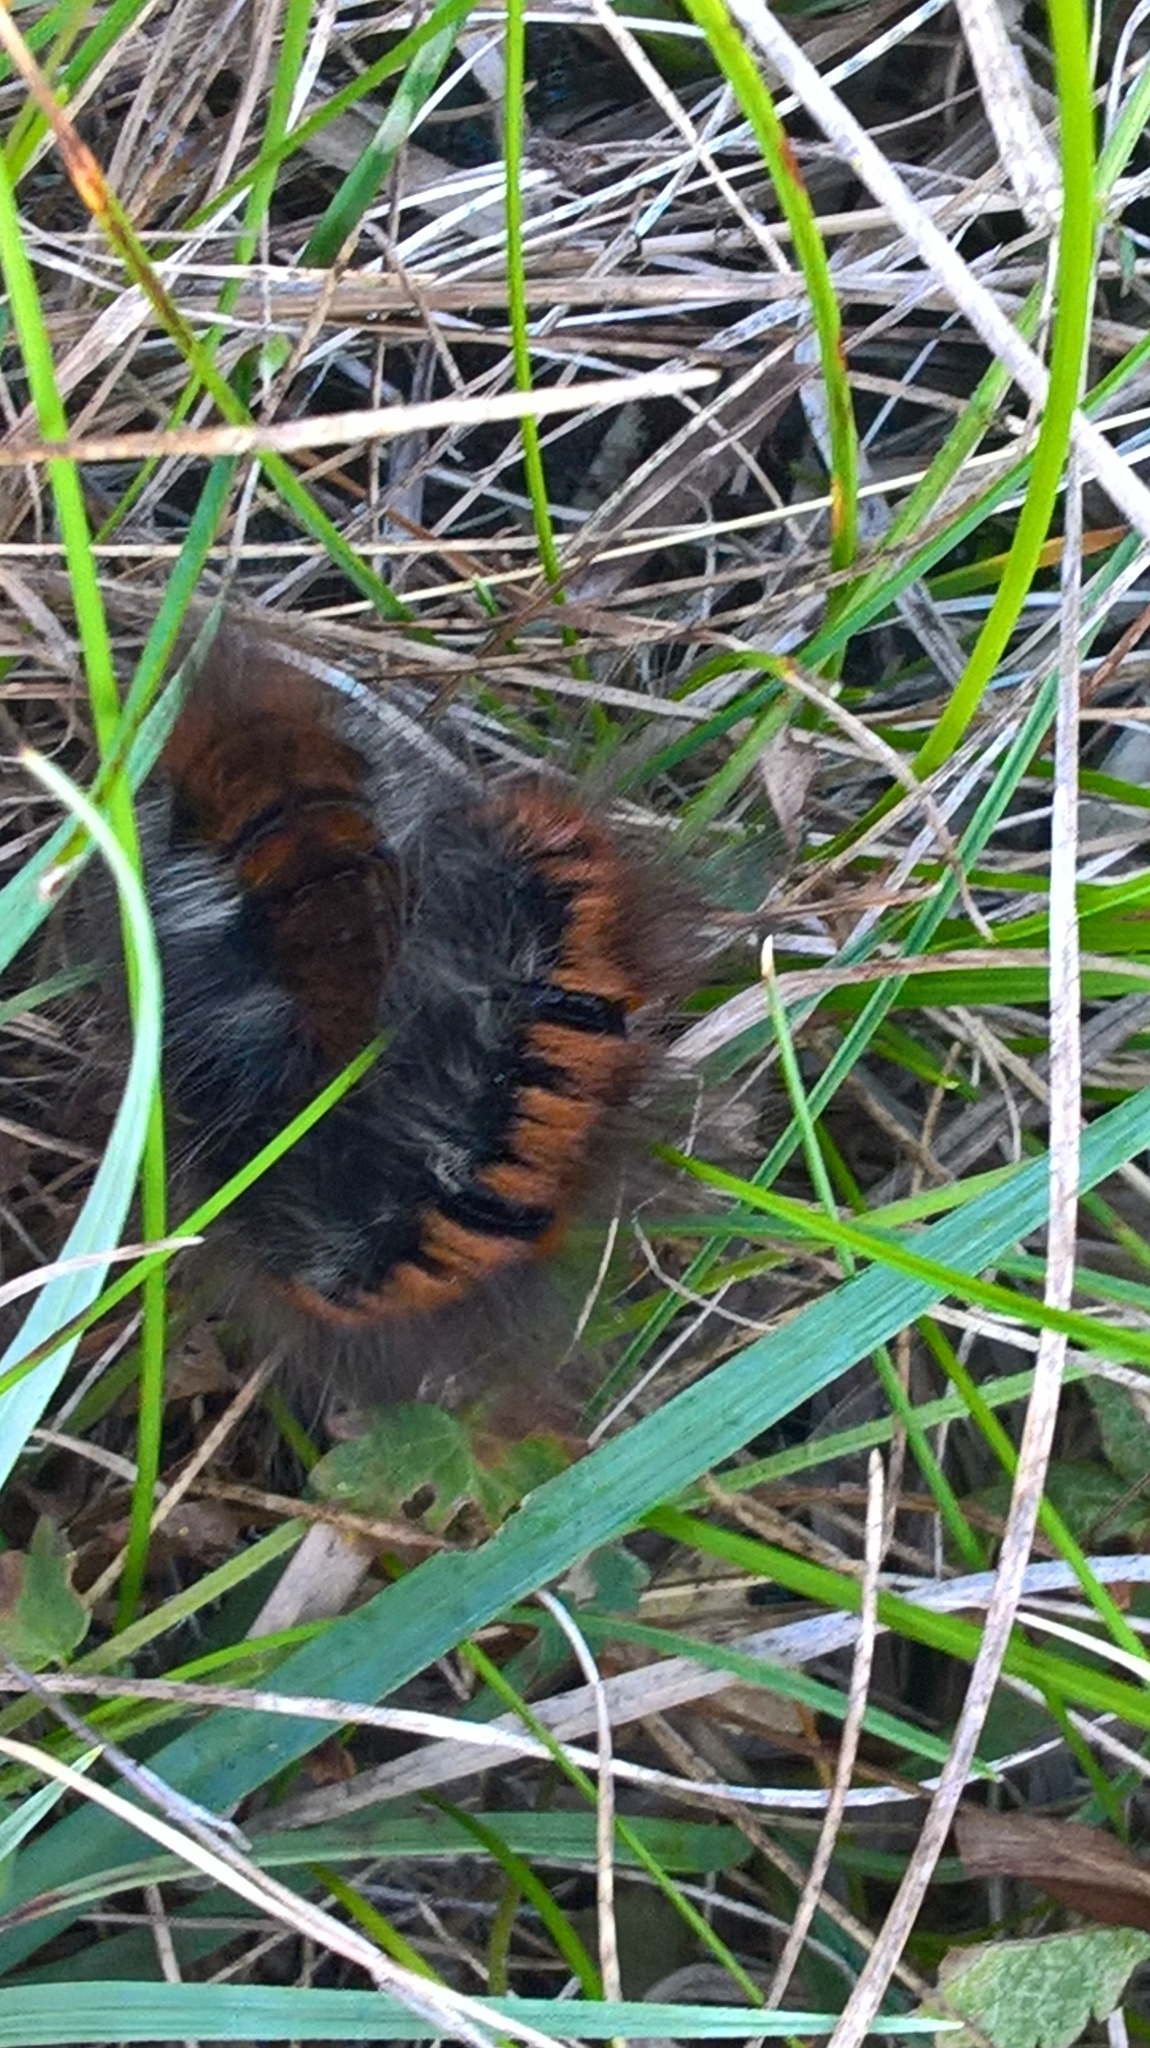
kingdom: Animalia
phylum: Arthropoda
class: Insecta
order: Lepidoptera
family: Lasiocampidae
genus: Macrothylacia
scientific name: Macrothylacia rubi
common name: Fox moth
